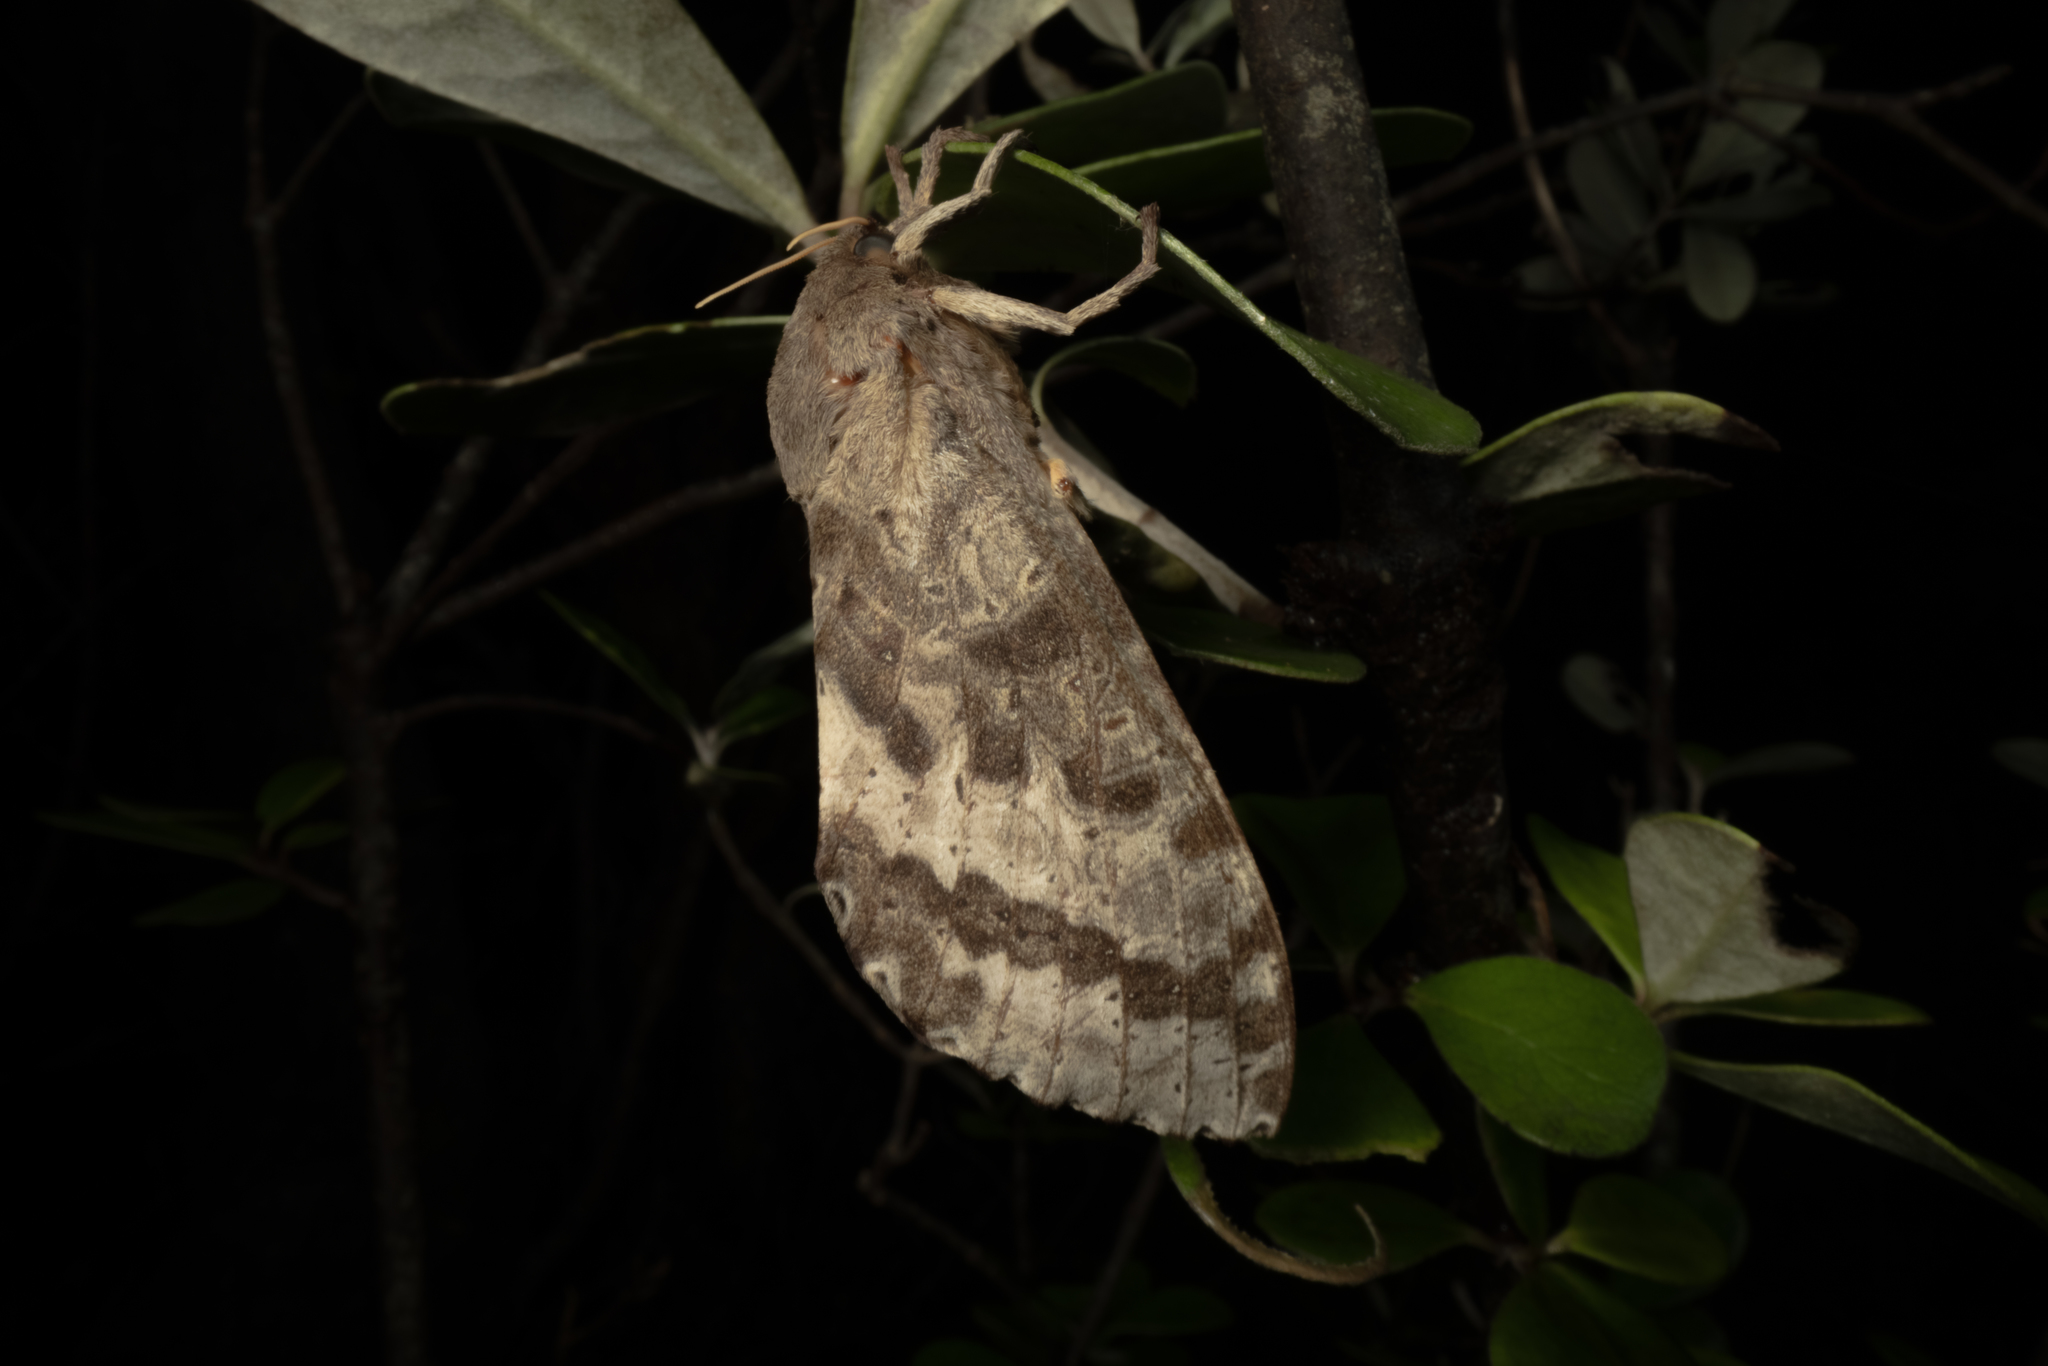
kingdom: Animalia
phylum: Arthropoda
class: Insecta
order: Lepidoptera
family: Hepialidae
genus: Dumbletonius
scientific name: Dumbletonius unimaculata
